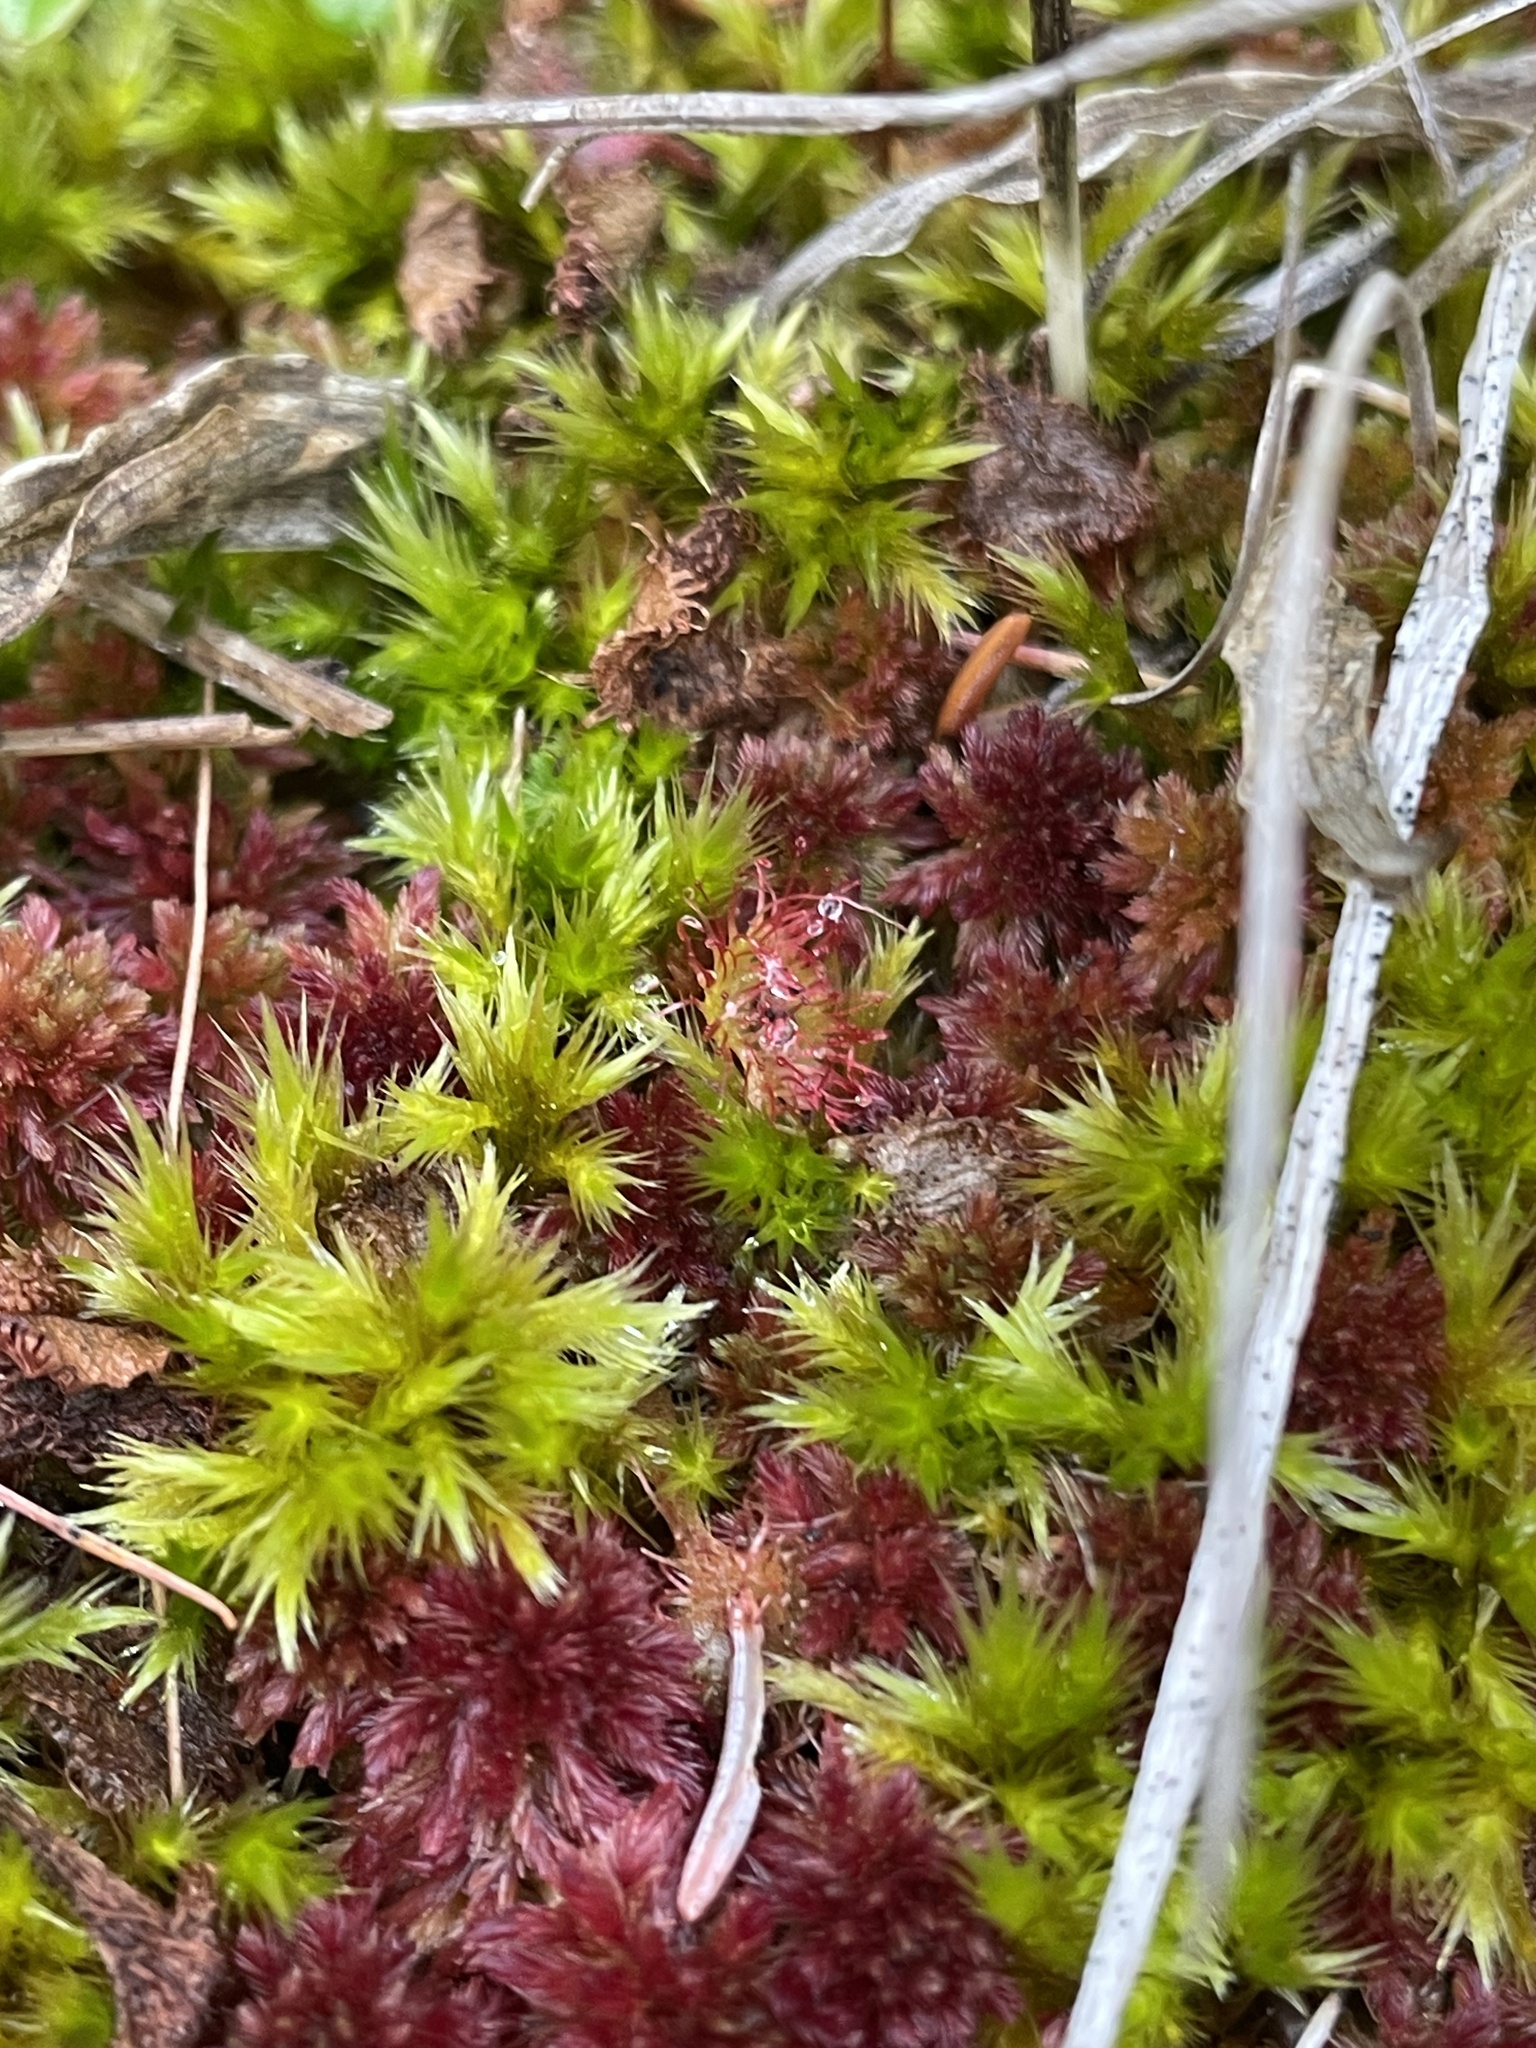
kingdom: Plantae
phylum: Tracheophyta
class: Magnoliopsida
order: Caryophyllales
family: Droseraceae
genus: Drosera
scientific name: Drosera rotundifolia
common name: Round-leaved sundew
